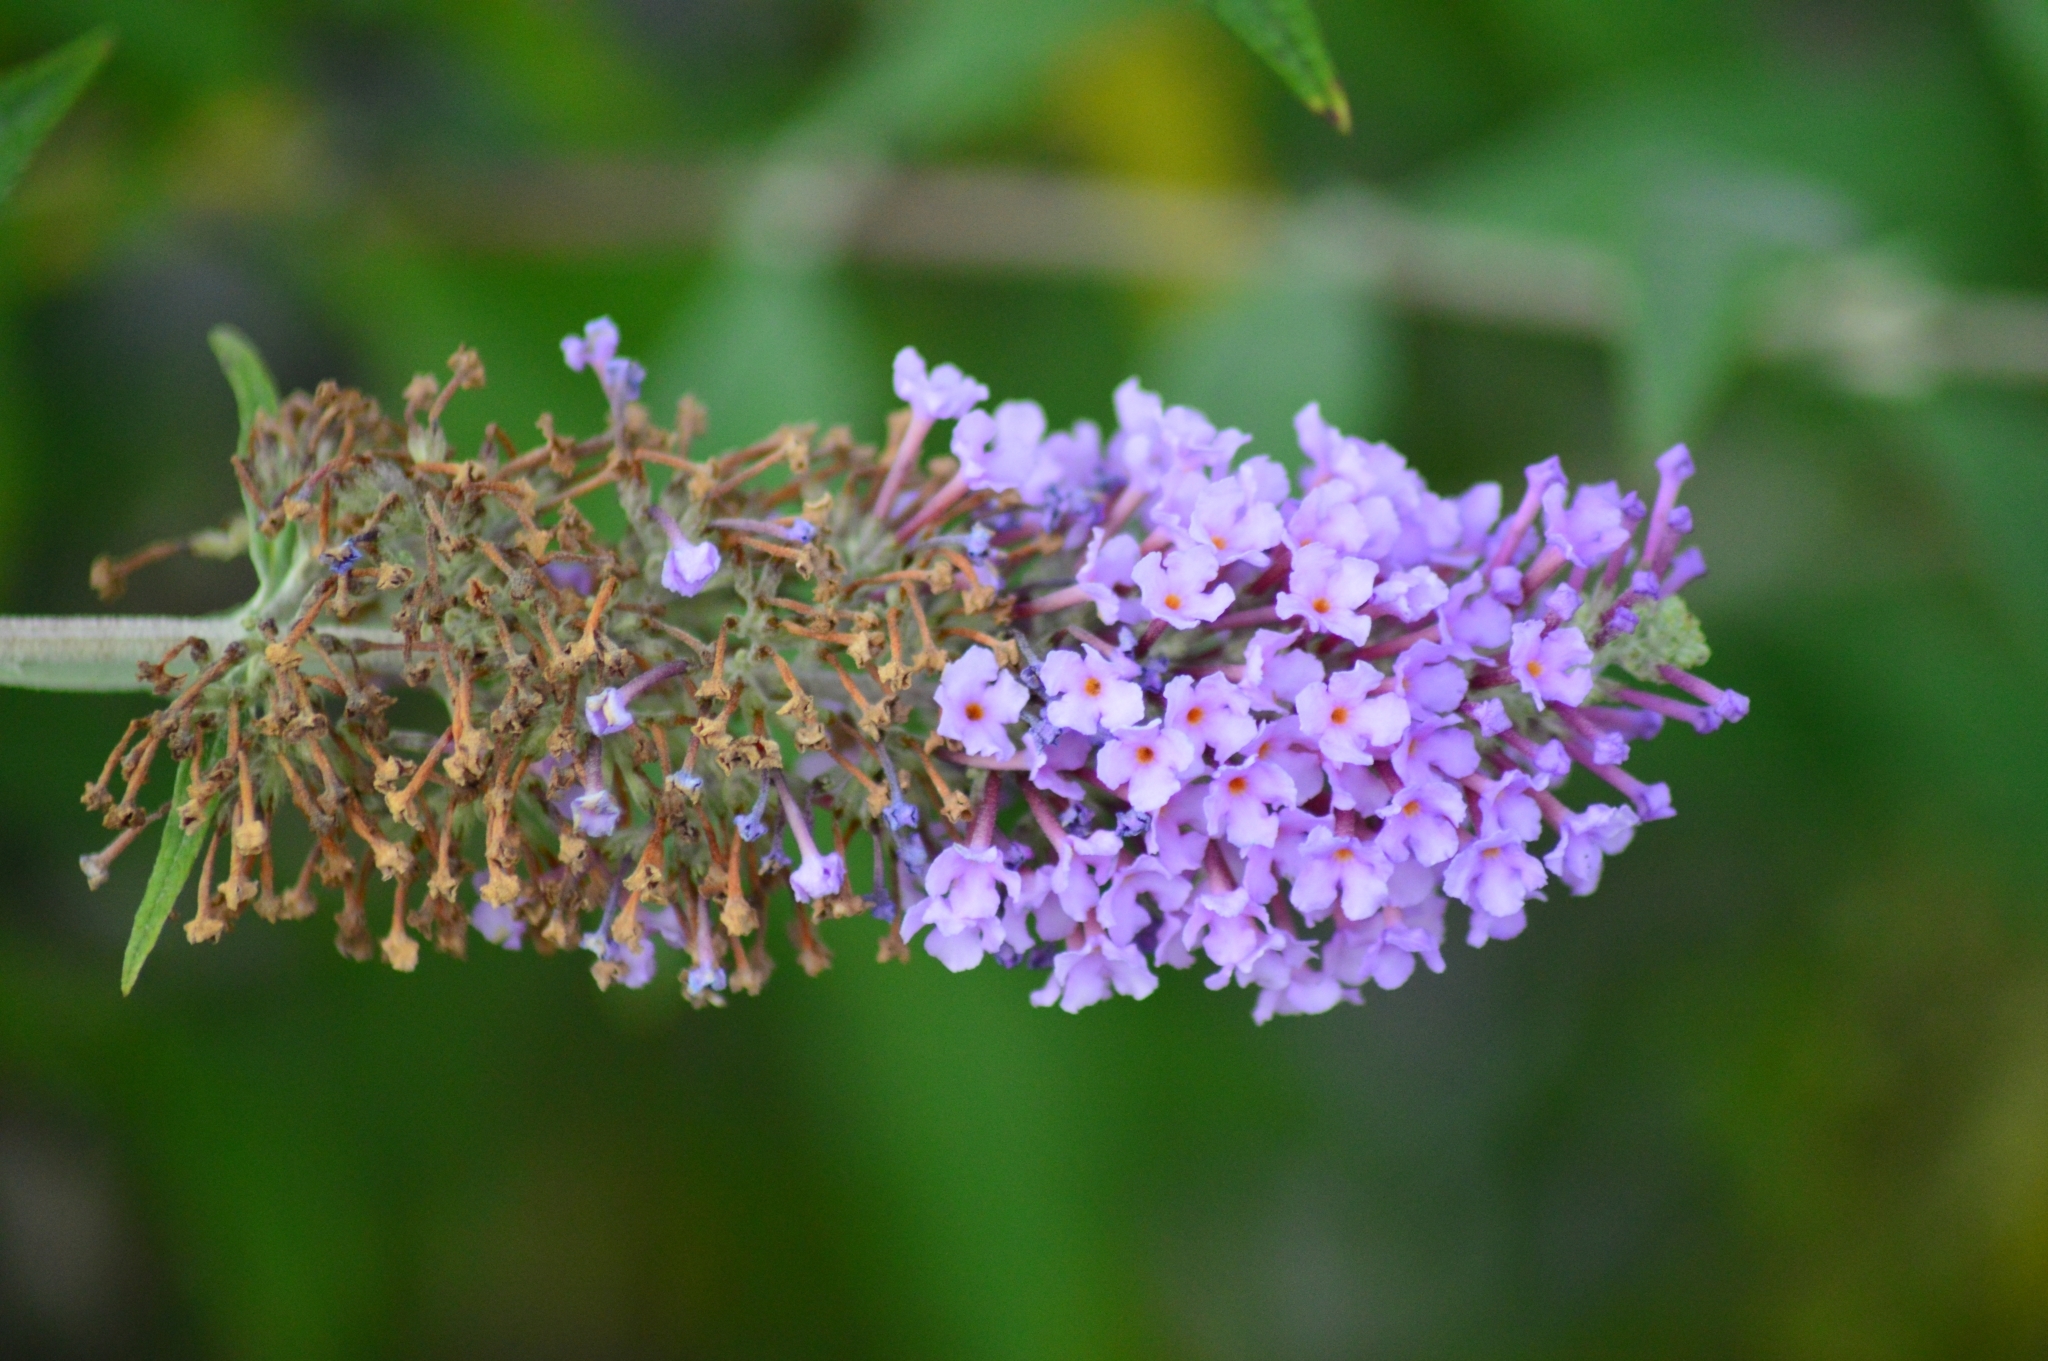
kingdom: Plantae
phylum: Tracheophyta
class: Magnoliopsida
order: Lamiales
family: Scrophulariaceae
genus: Buddleja
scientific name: Buddleja davidii
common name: Butterfly-bush
